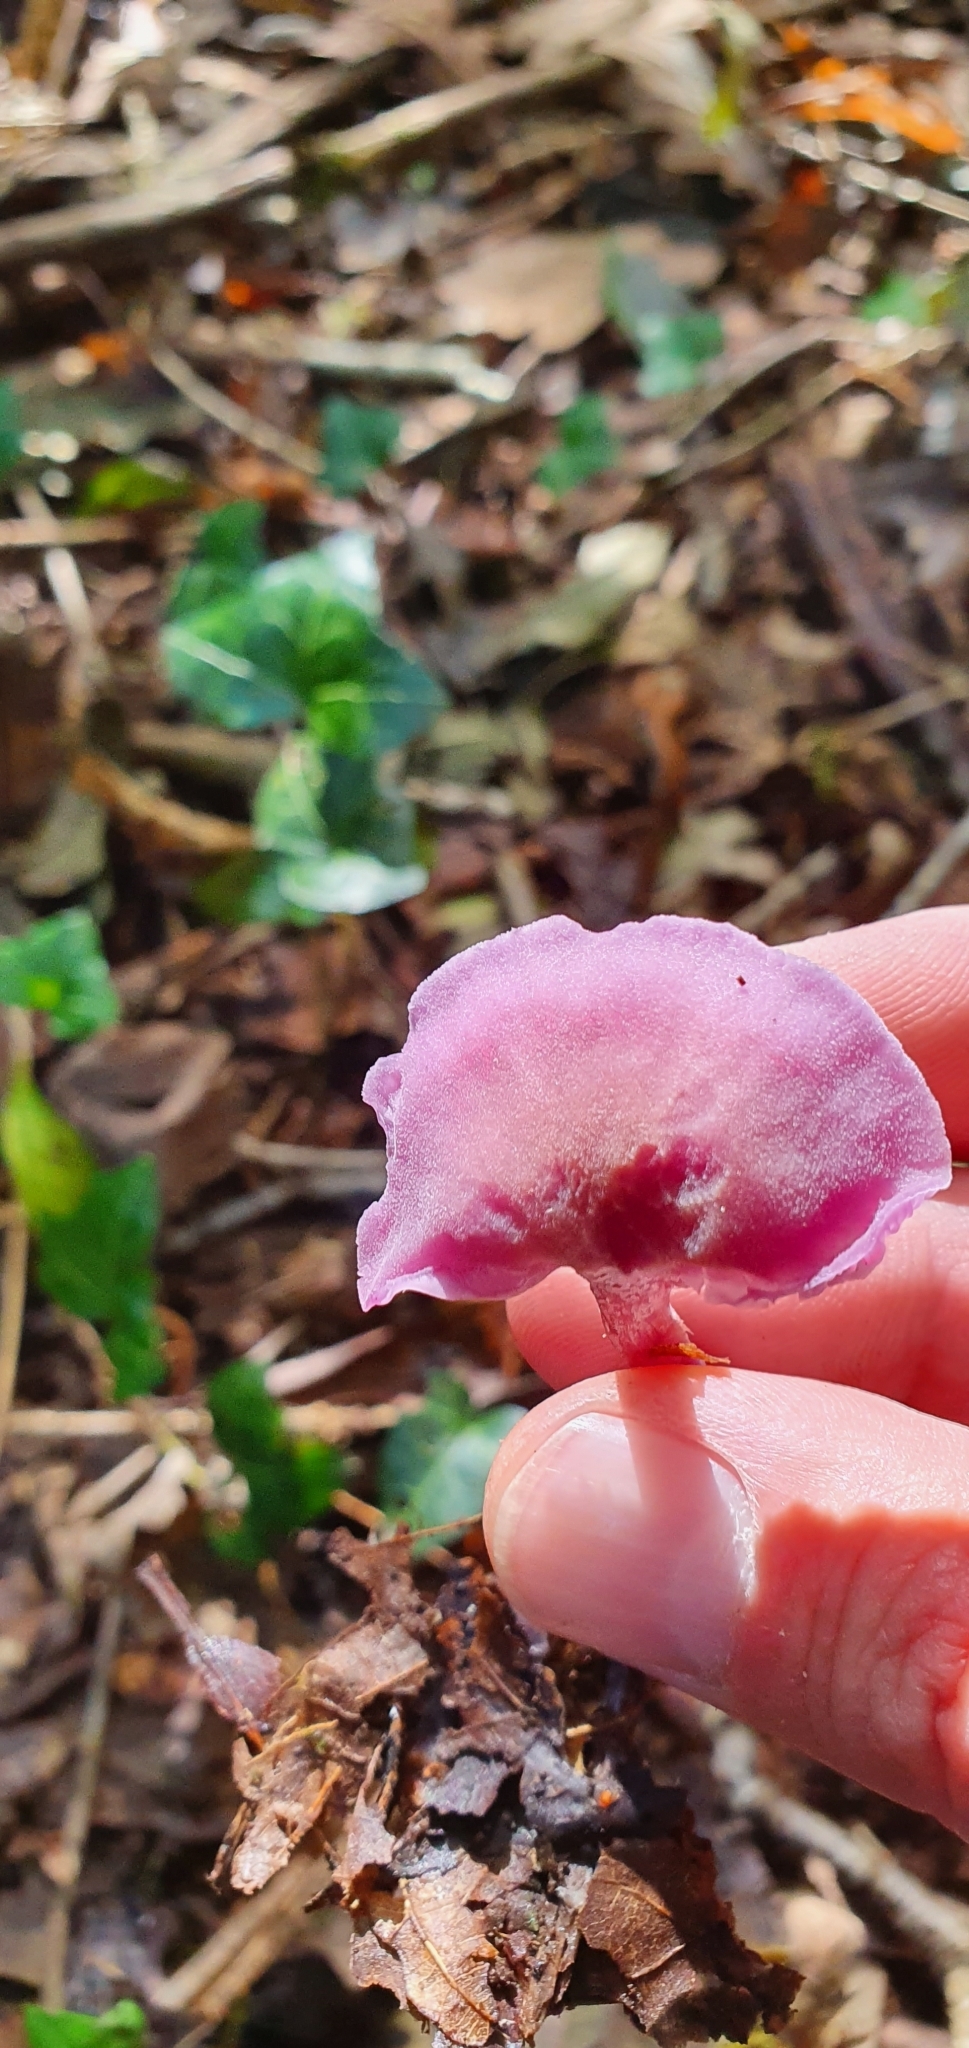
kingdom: Fungi
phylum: Basidiomycota
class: Agaricomycetes
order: Agaricales
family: Hydnangiaceae
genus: Laccaria
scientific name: Laccaria amethystina
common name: Amethyst deceiver
